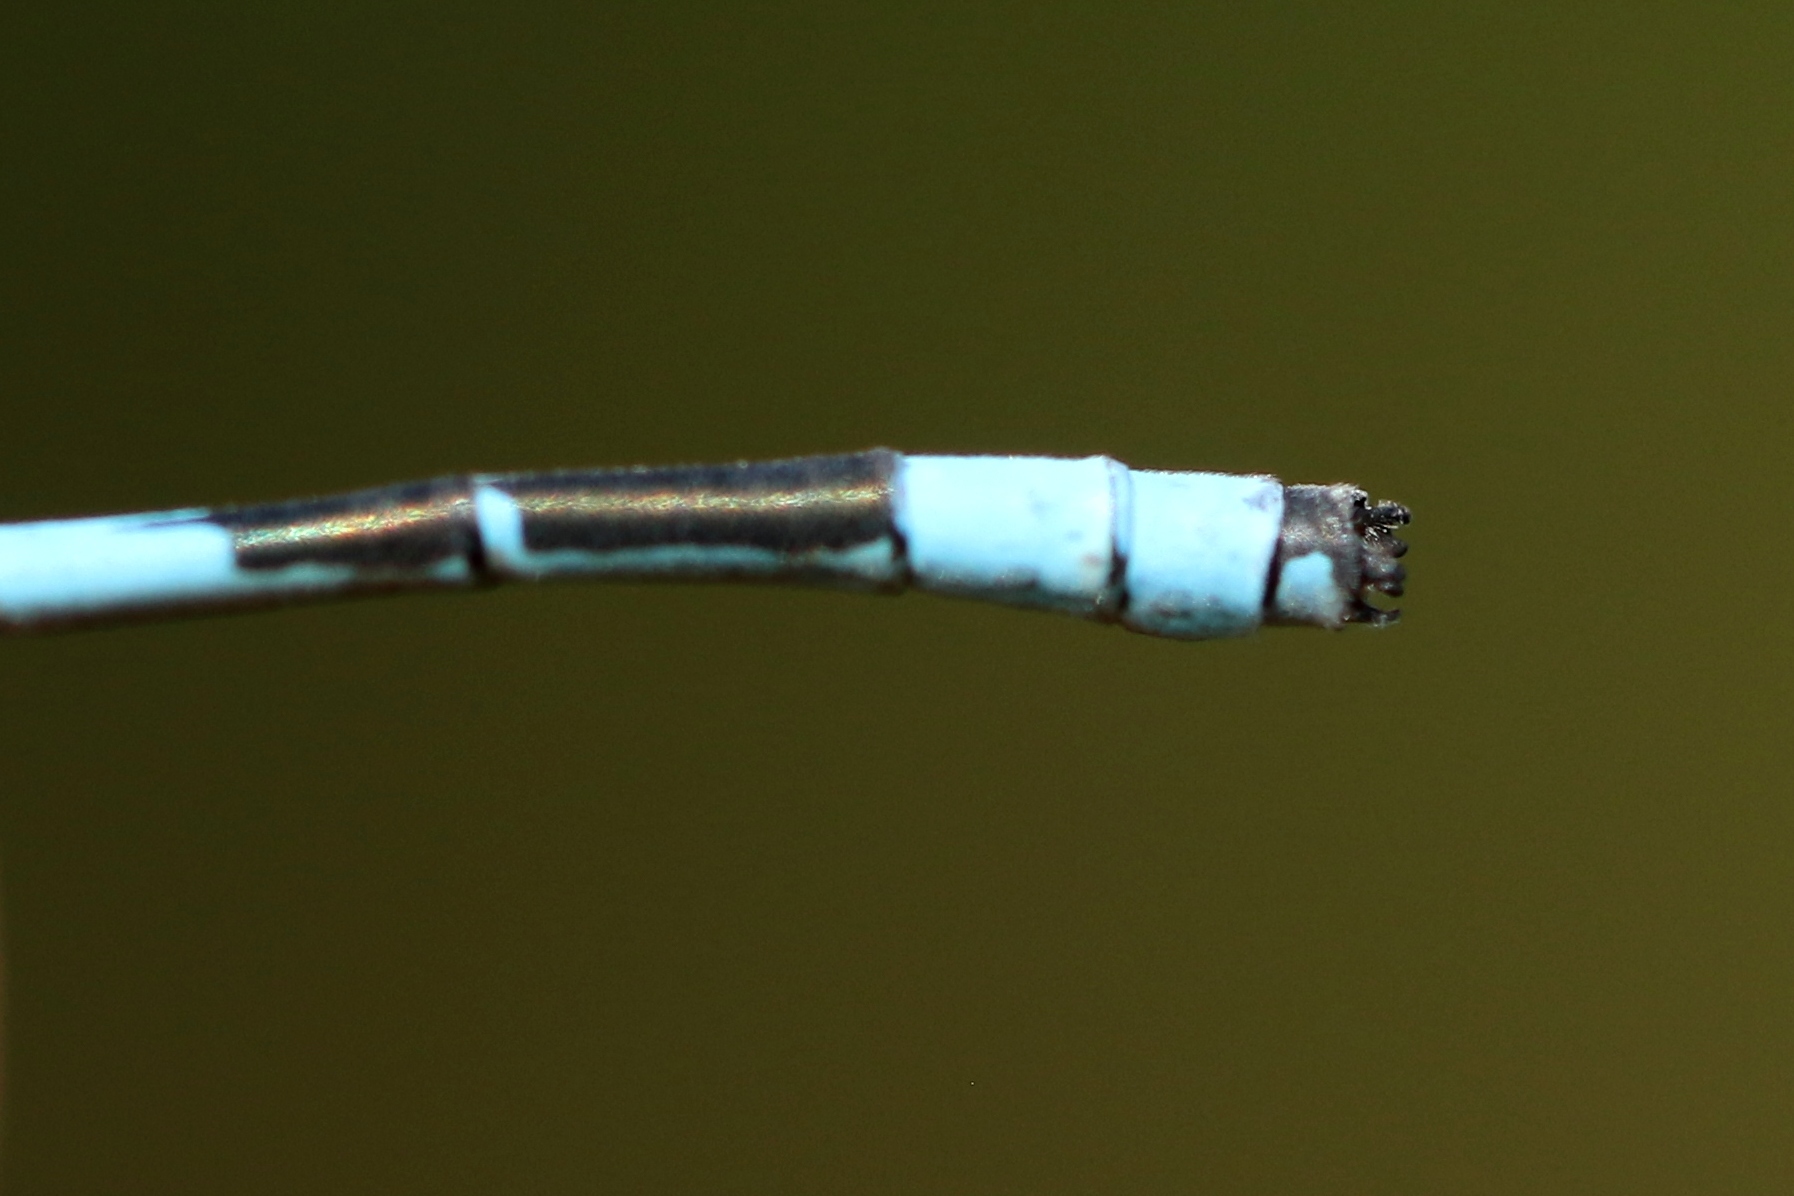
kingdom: Animalia
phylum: Arthropoda
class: Insecta
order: Odonata
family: Coenagrionidae
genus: Enallagma
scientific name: Enallagma ebrium
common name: Marsh bluet
